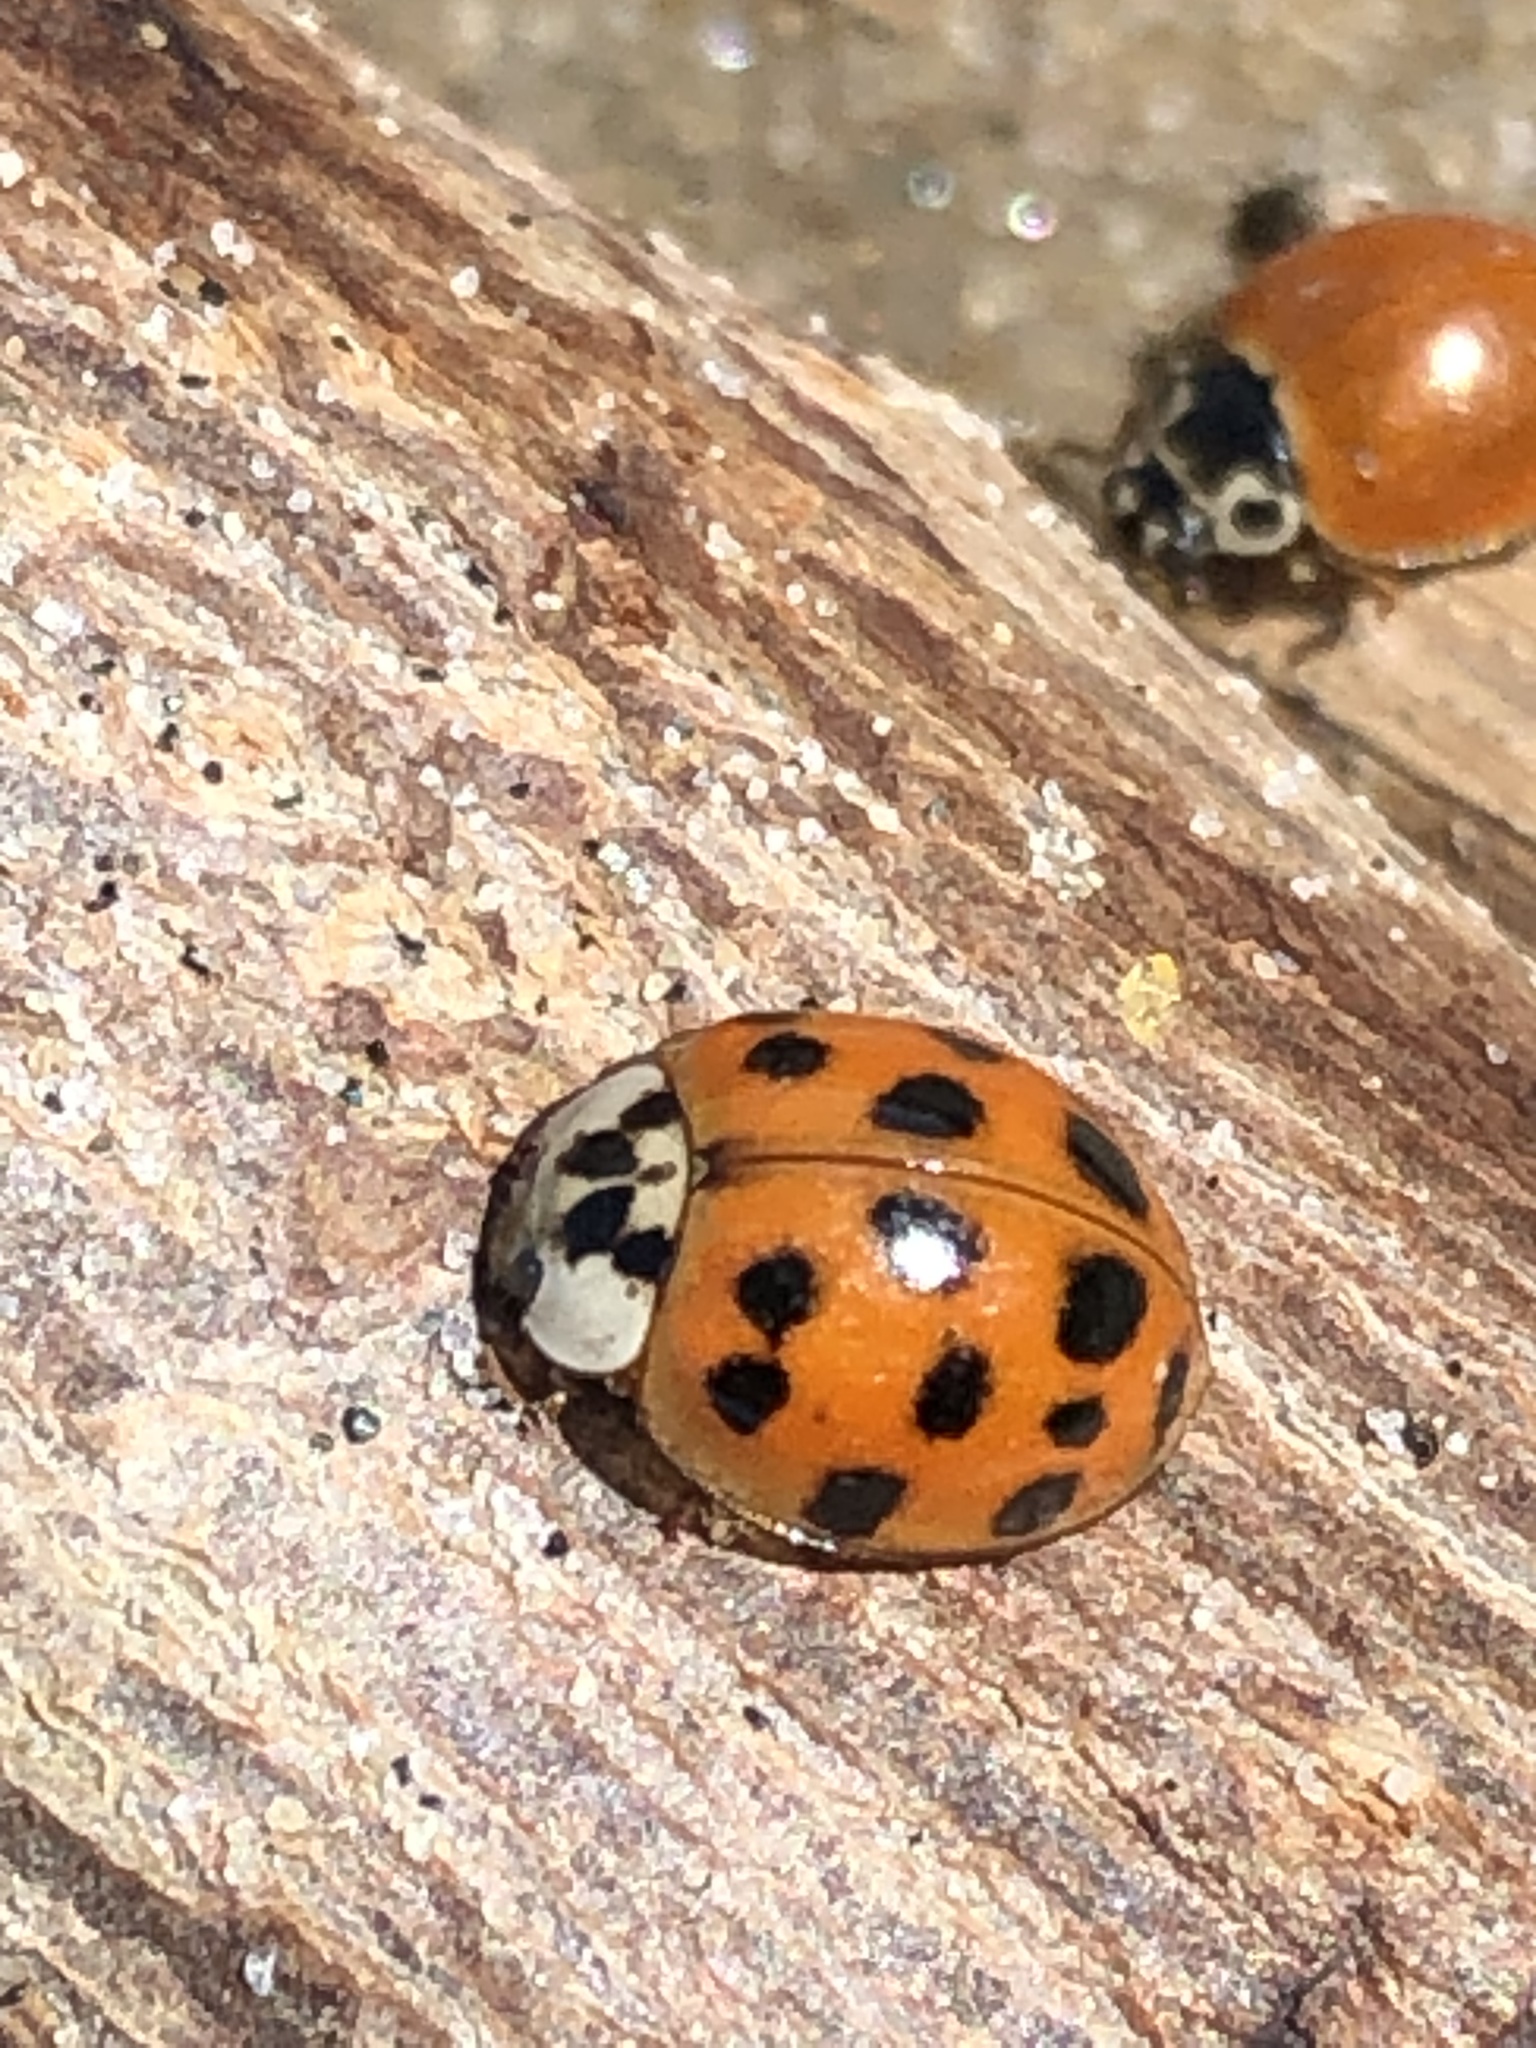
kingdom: Animalia
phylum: Arthropoda
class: Insecta
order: Coleoptera
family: Coccinellidae
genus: Harmonia
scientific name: Harmonia axyridis
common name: Harlequin ladybird
